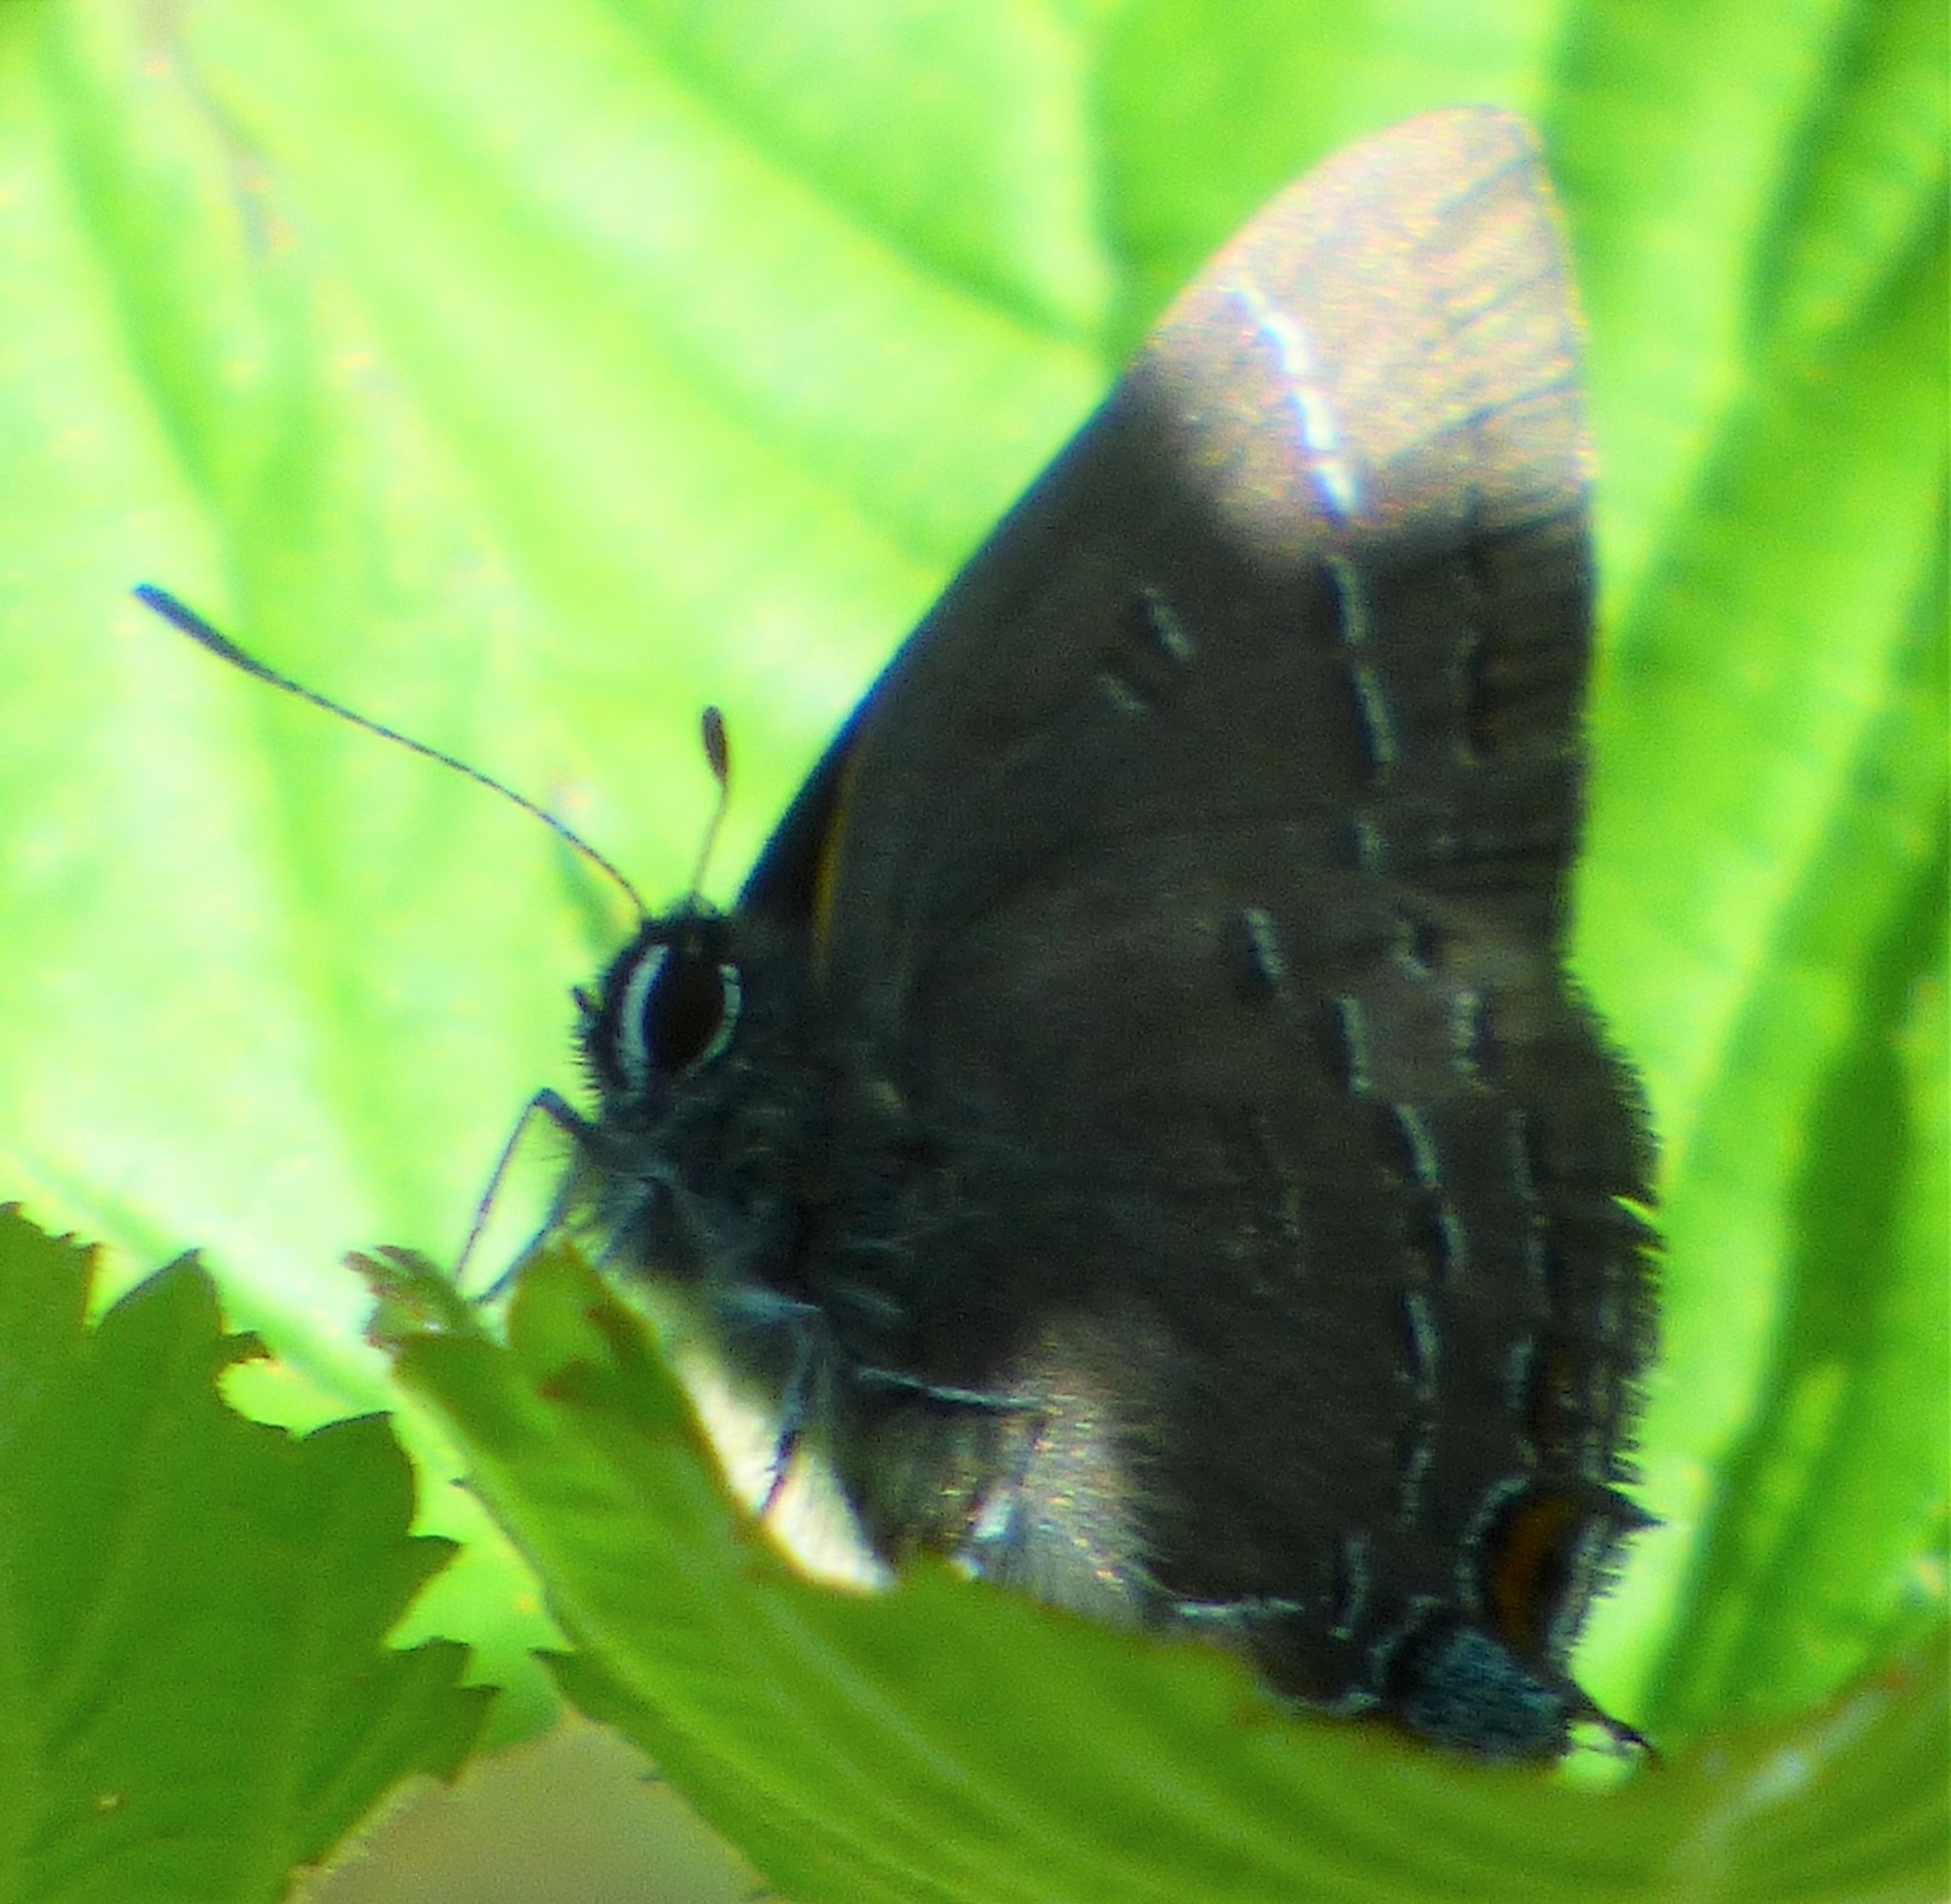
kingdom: Animalia
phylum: Arthropoda
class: Insecta
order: Lepidoptera
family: Lycaenidae
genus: Satyrium
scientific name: Satyrium calanus
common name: Banded hairstreak
